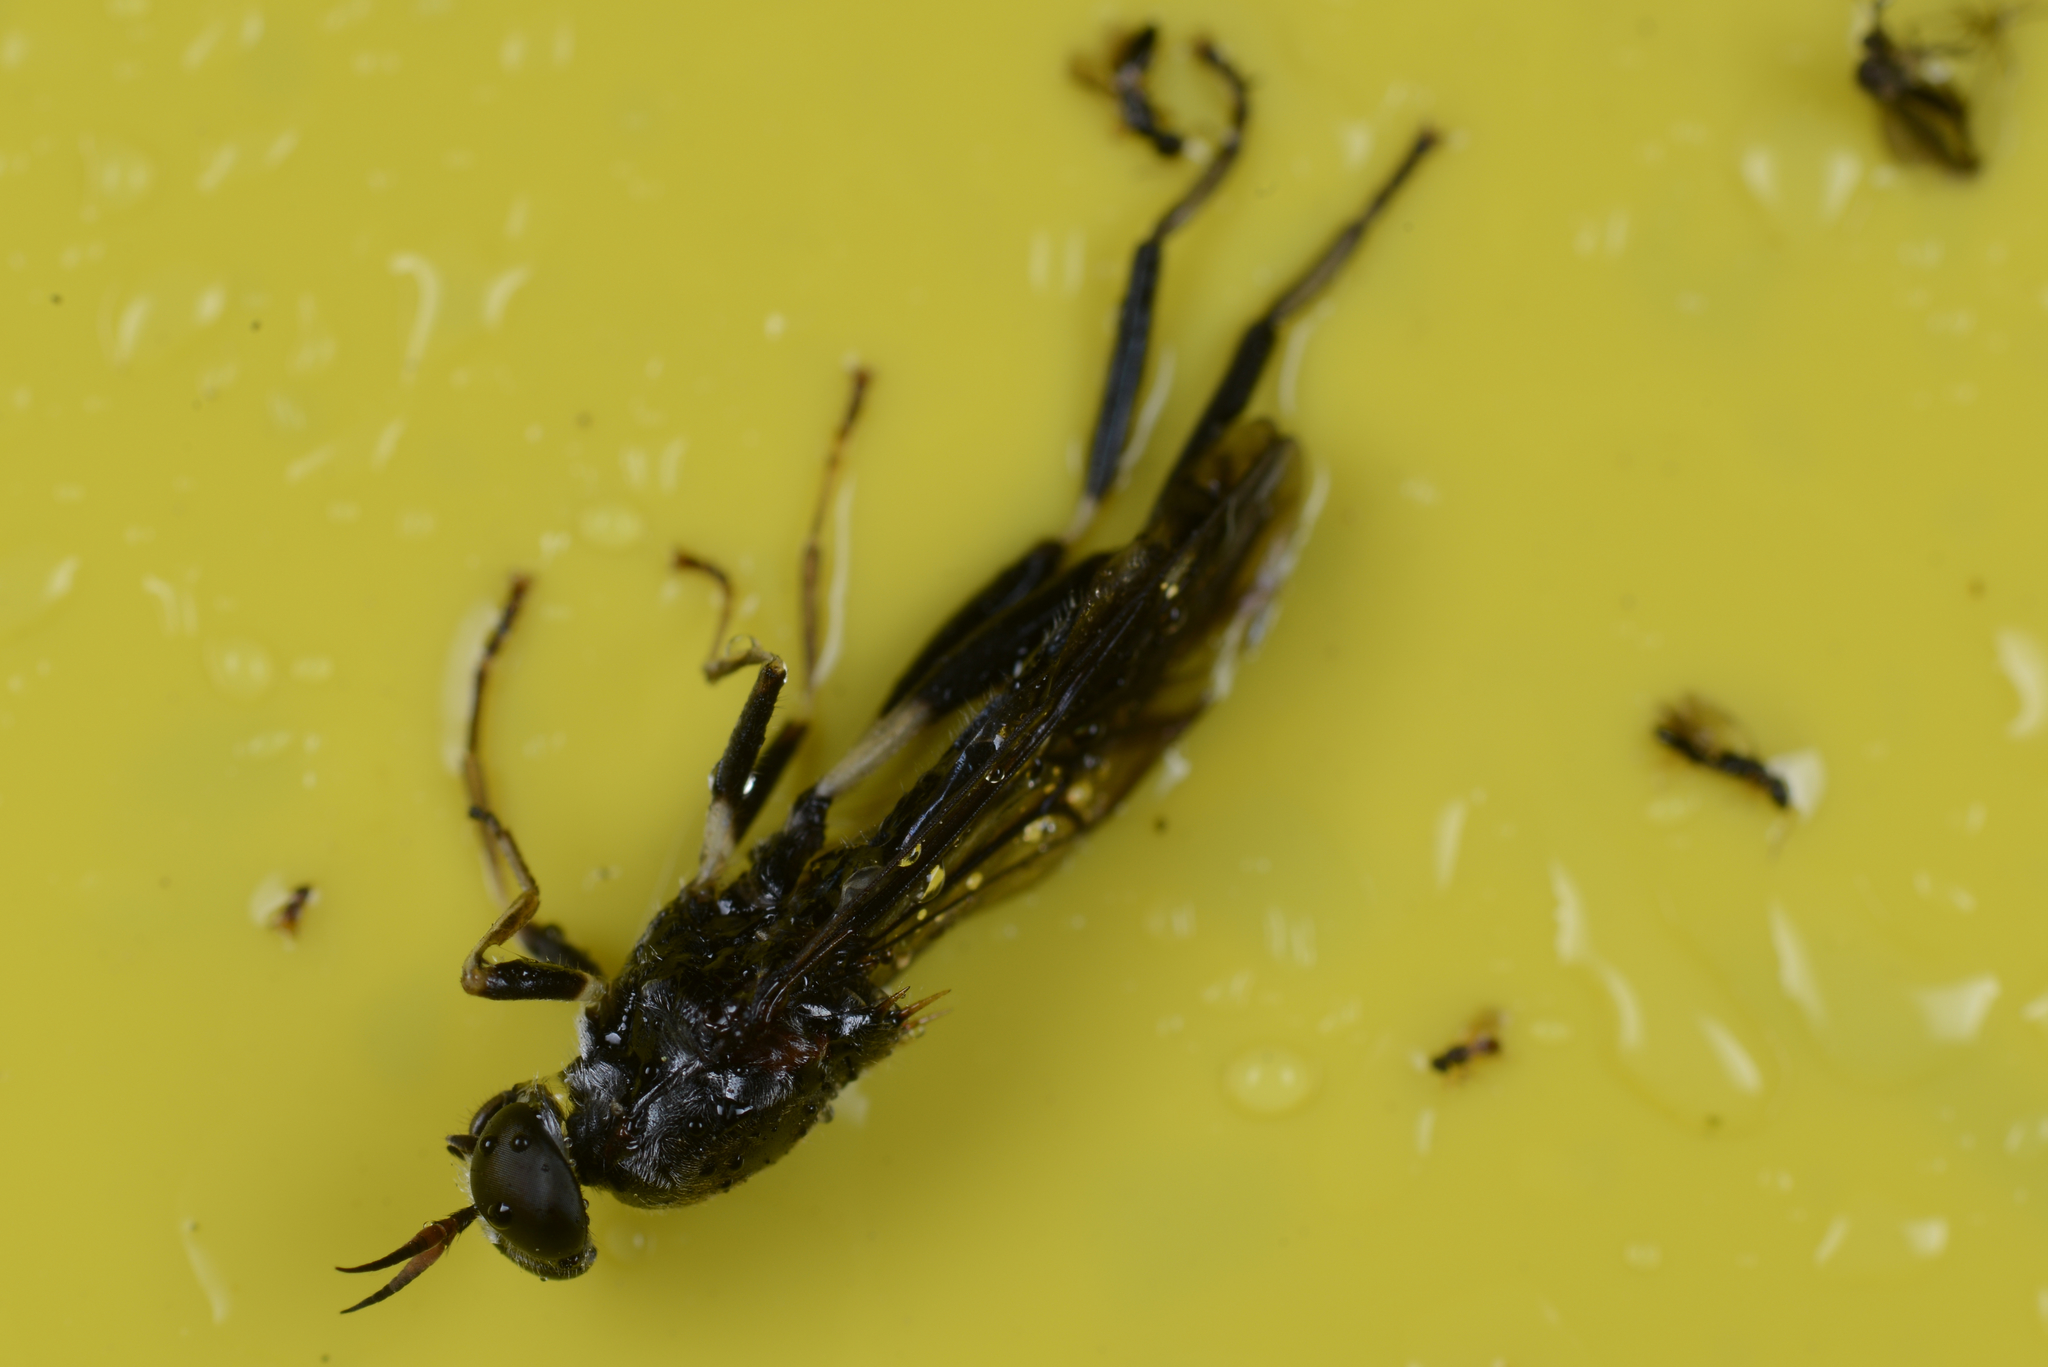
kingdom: Animalia
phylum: Arthropoda
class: Insecta
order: Diptera
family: Stratiomyidae
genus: Exaireta
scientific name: Exaireta spinigera
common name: Blue soldier fly
